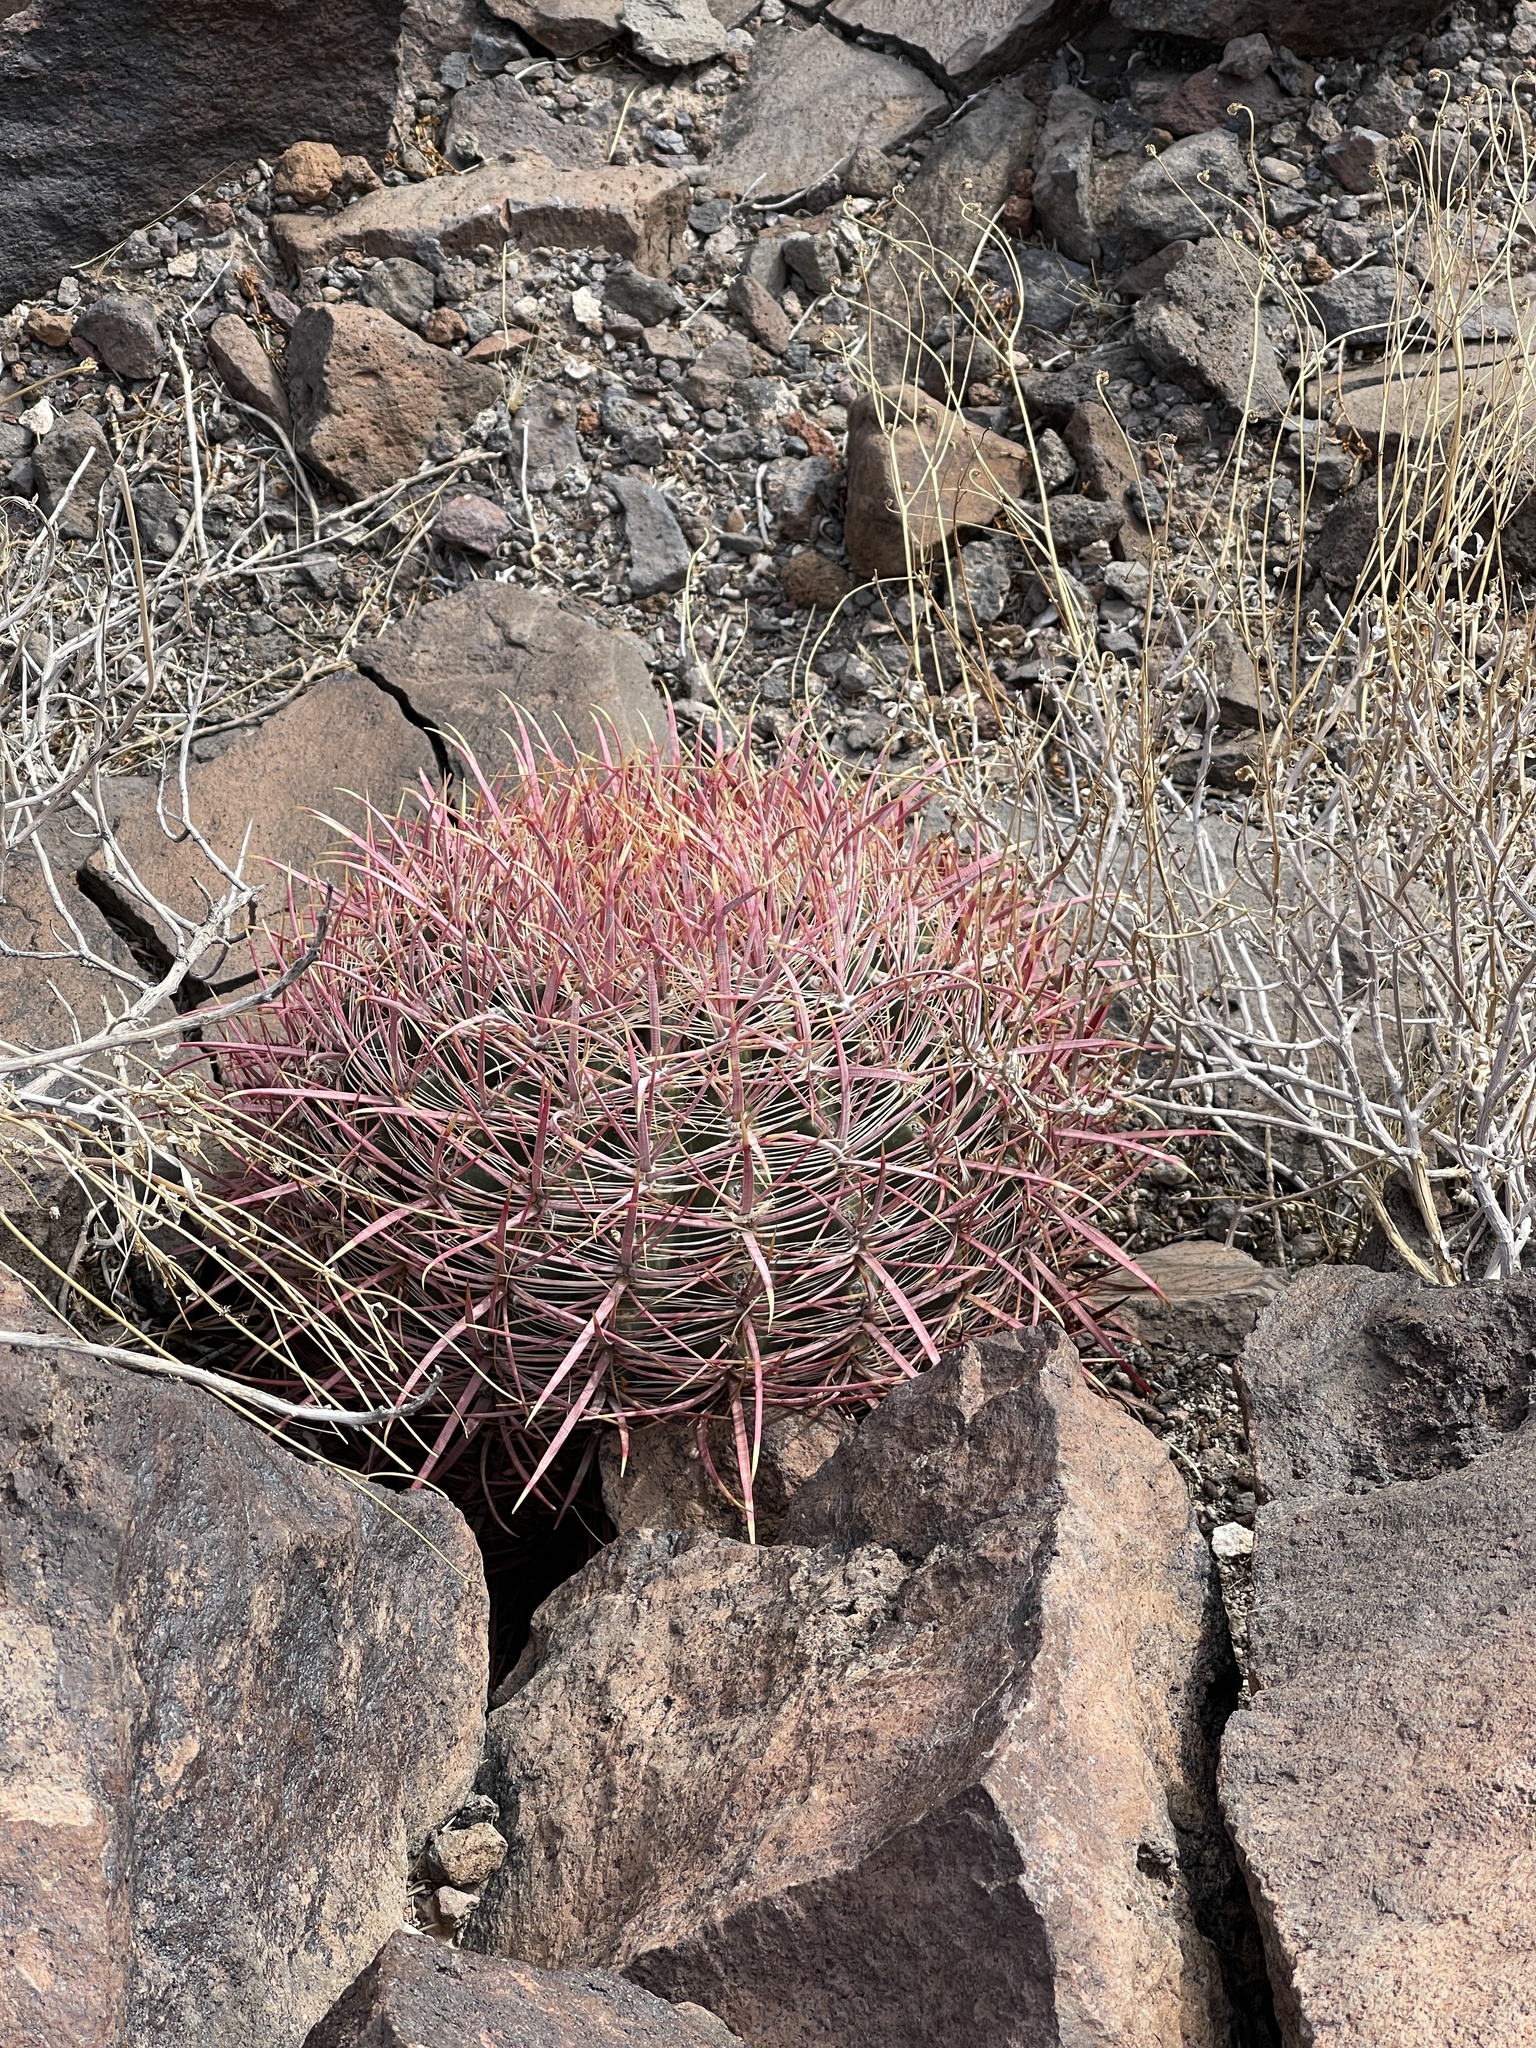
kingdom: Plantae
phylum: Tracheophyta
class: Magnoliopsida
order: Caryophyllales
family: Cactaceae
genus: Ferocactus
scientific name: Ferocactus cylindraceus
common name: California barrel cactus
